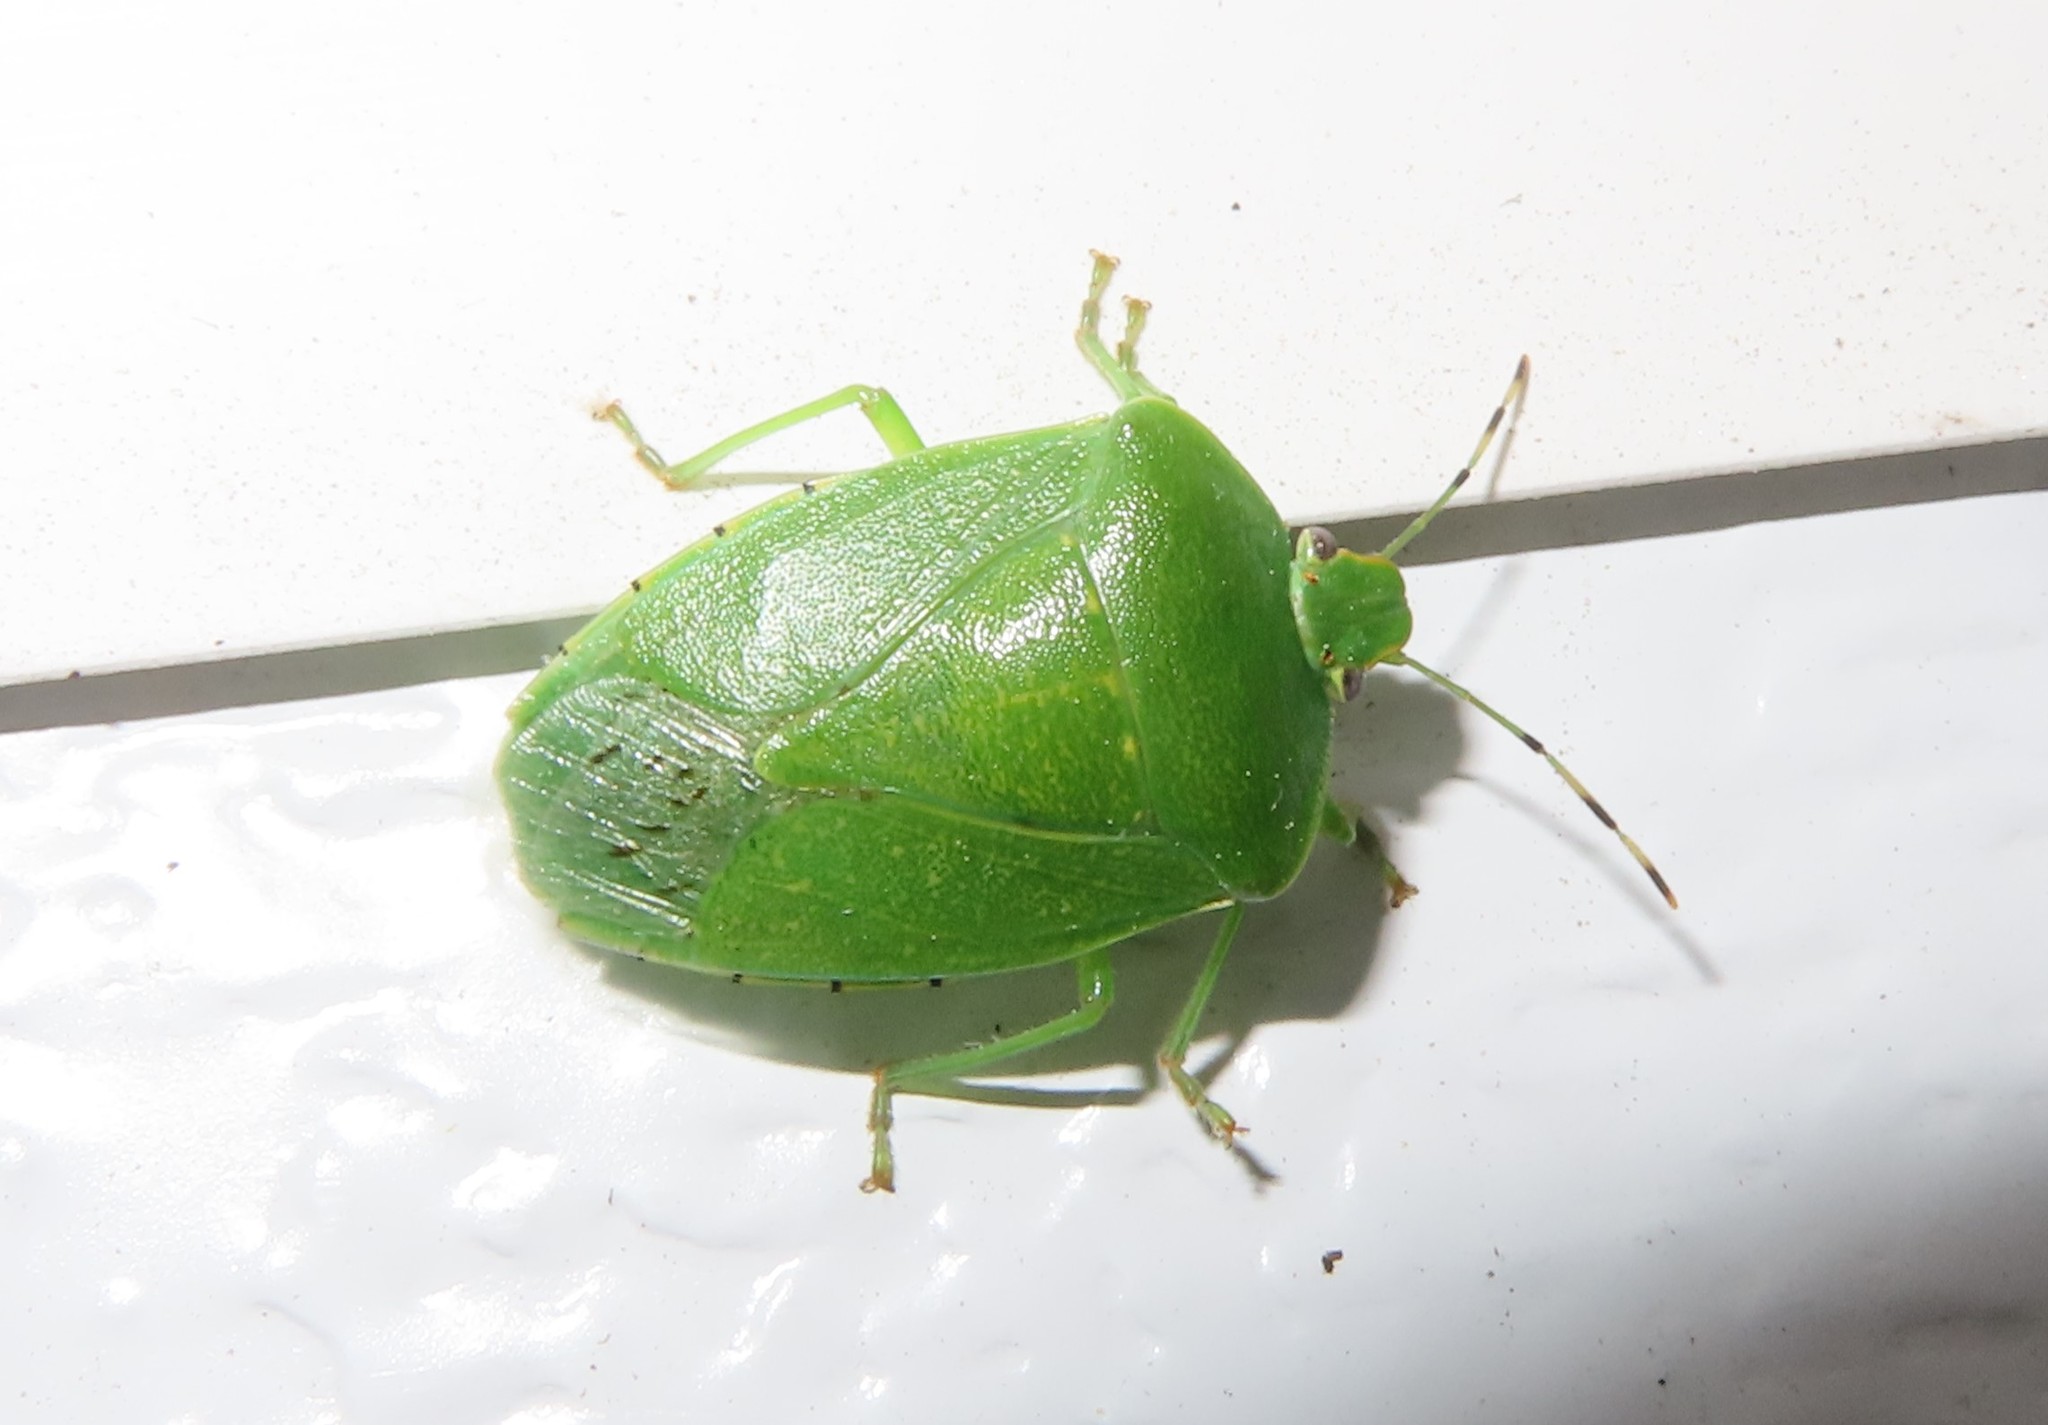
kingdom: Animalia
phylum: Arthropoda
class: Insecta
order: Hemiptera
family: Pentatomidae
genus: Chinavia
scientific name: Chinavia hilaris
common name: Green stink bug
